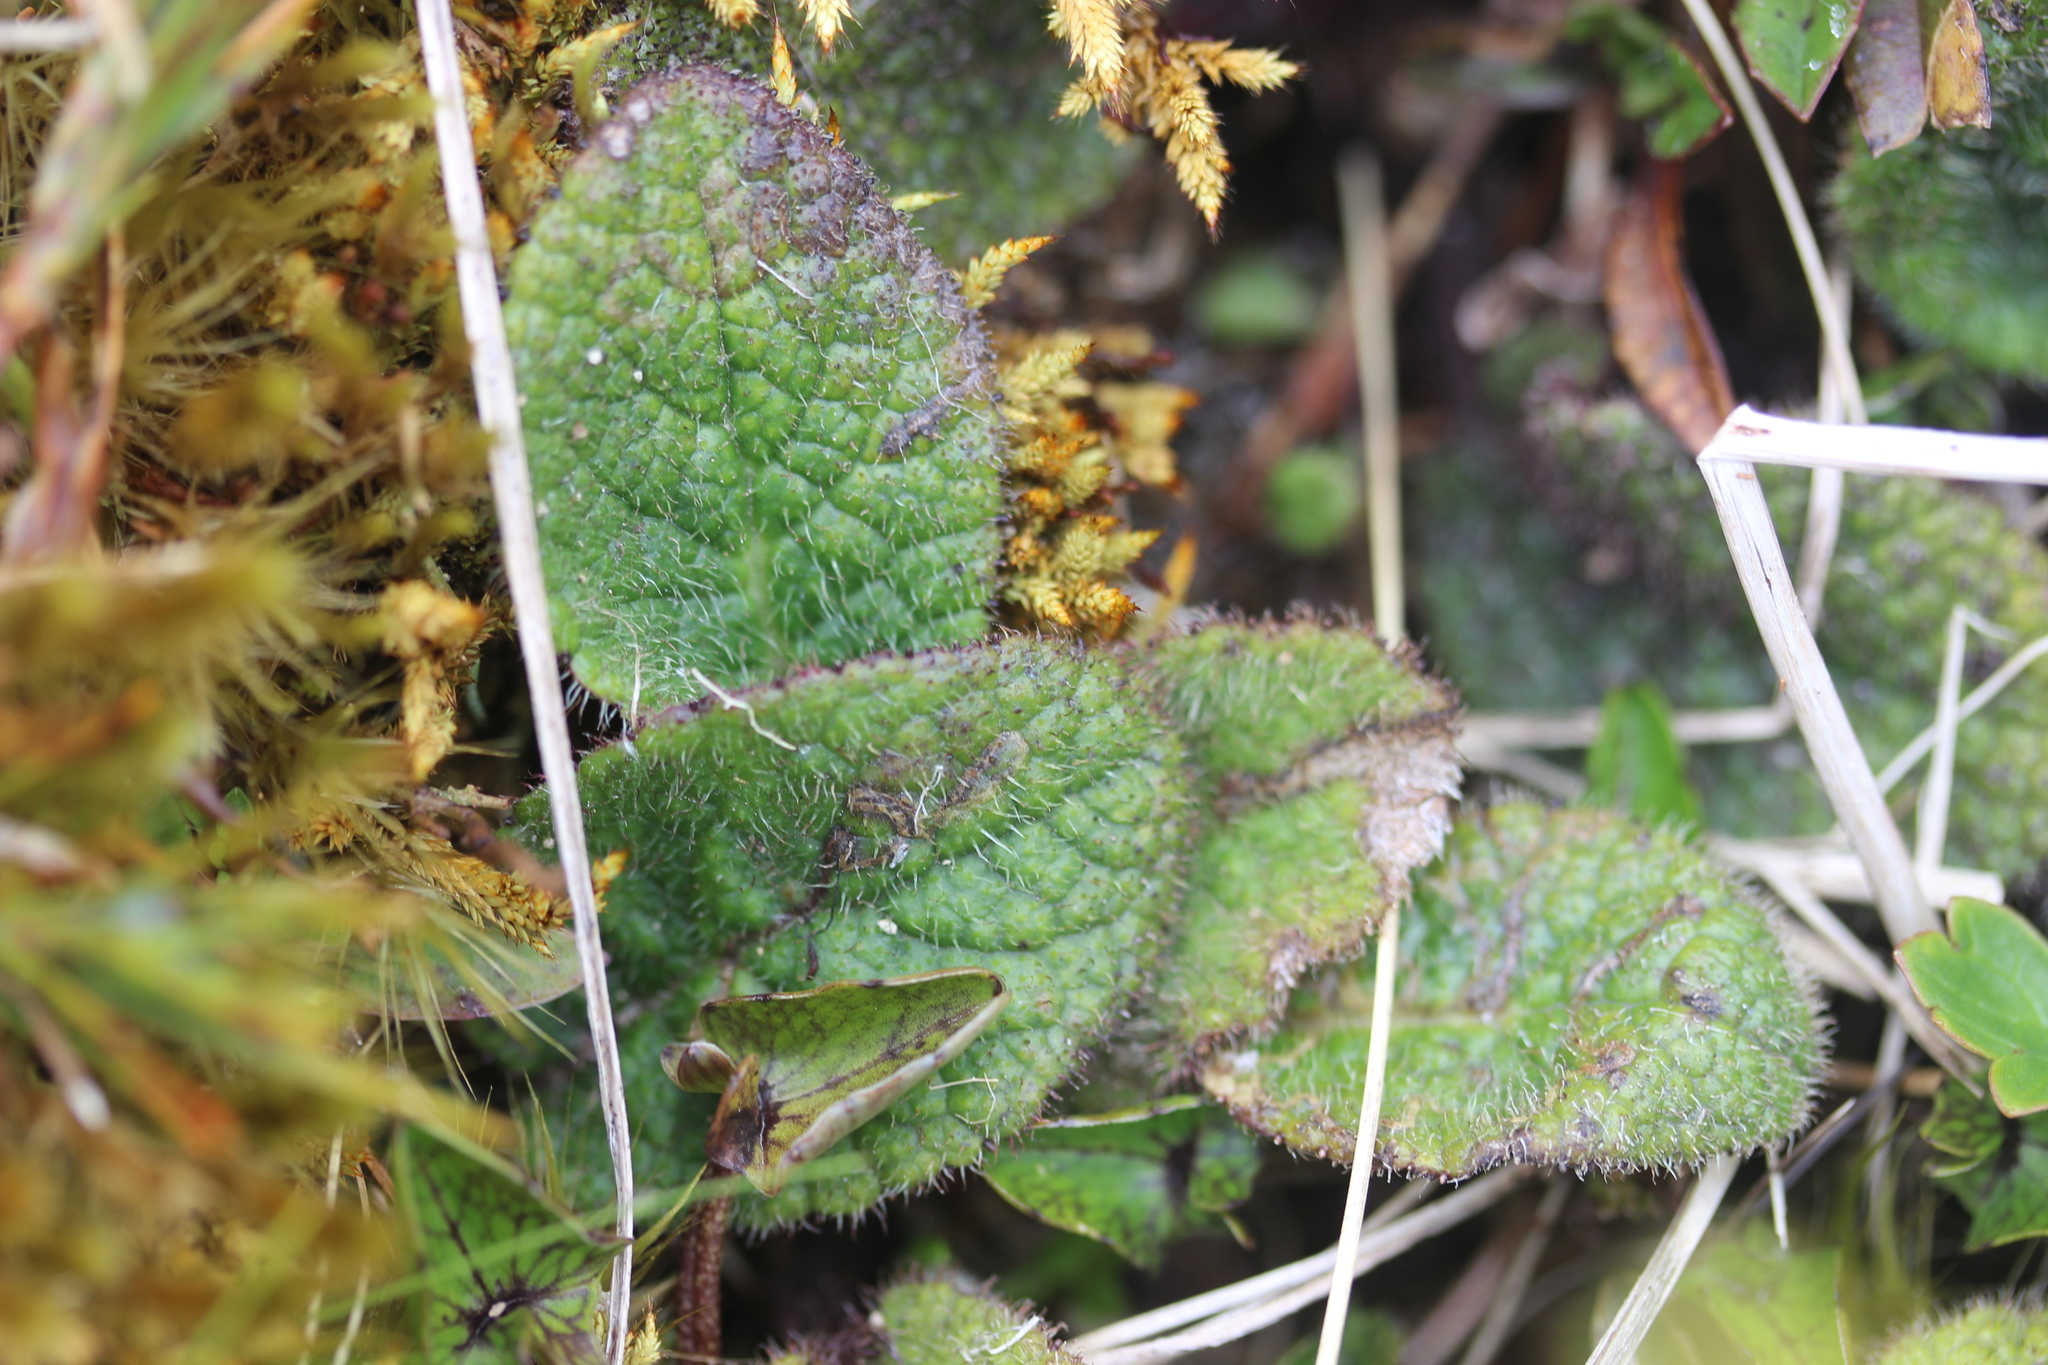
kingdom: Plantae
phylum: Tracheophyta
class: Magnoliopsida
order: Asterales
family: Asteraceae
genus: Brachyglottis
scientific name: Brachyglottis lagopus
